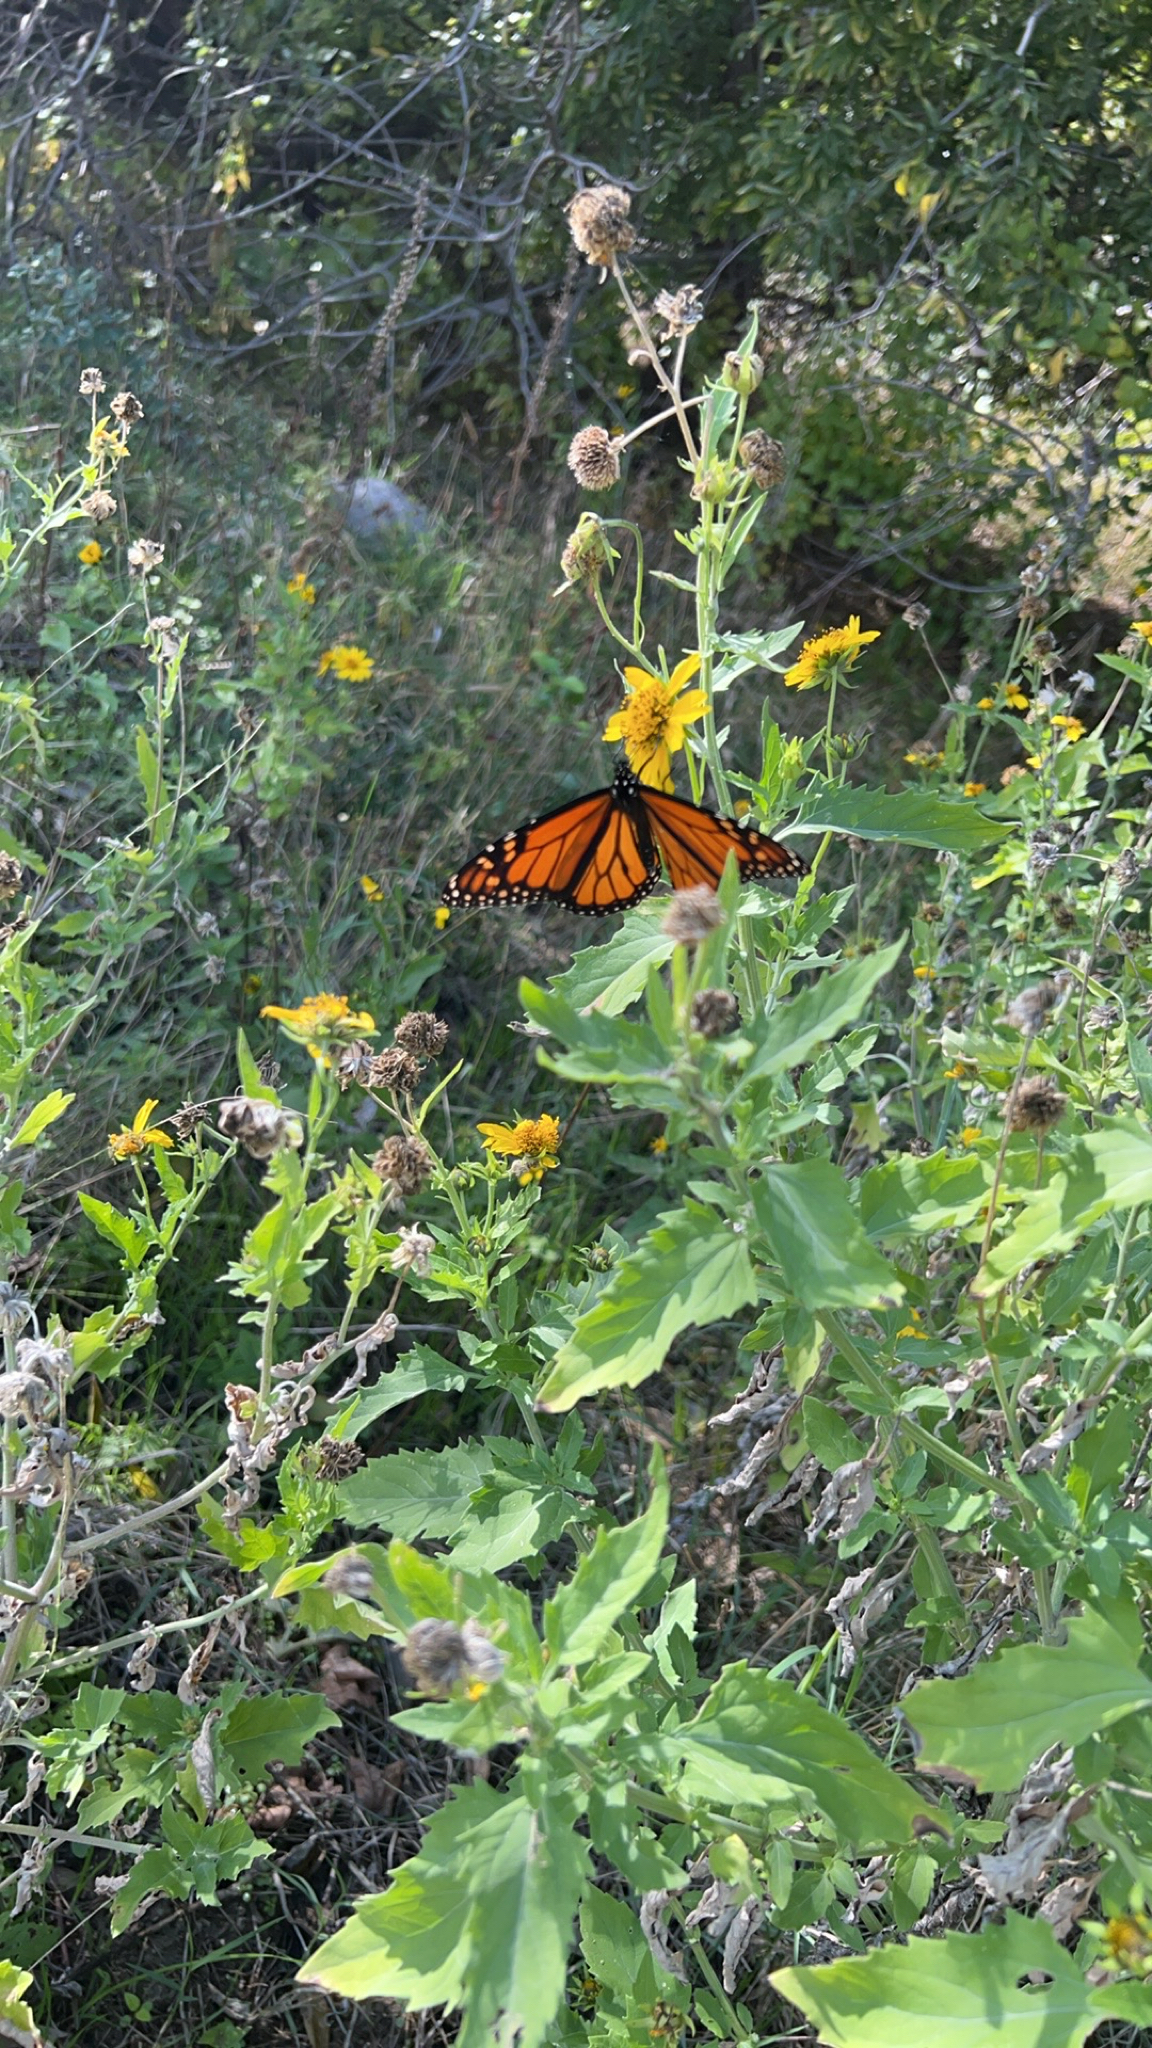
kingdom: Animalia
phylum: Arthropoda
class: Insecta
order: Lepidoptera
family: Nymphalidae
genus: Danaus
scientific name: Danaus plexippus
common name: Monarch
